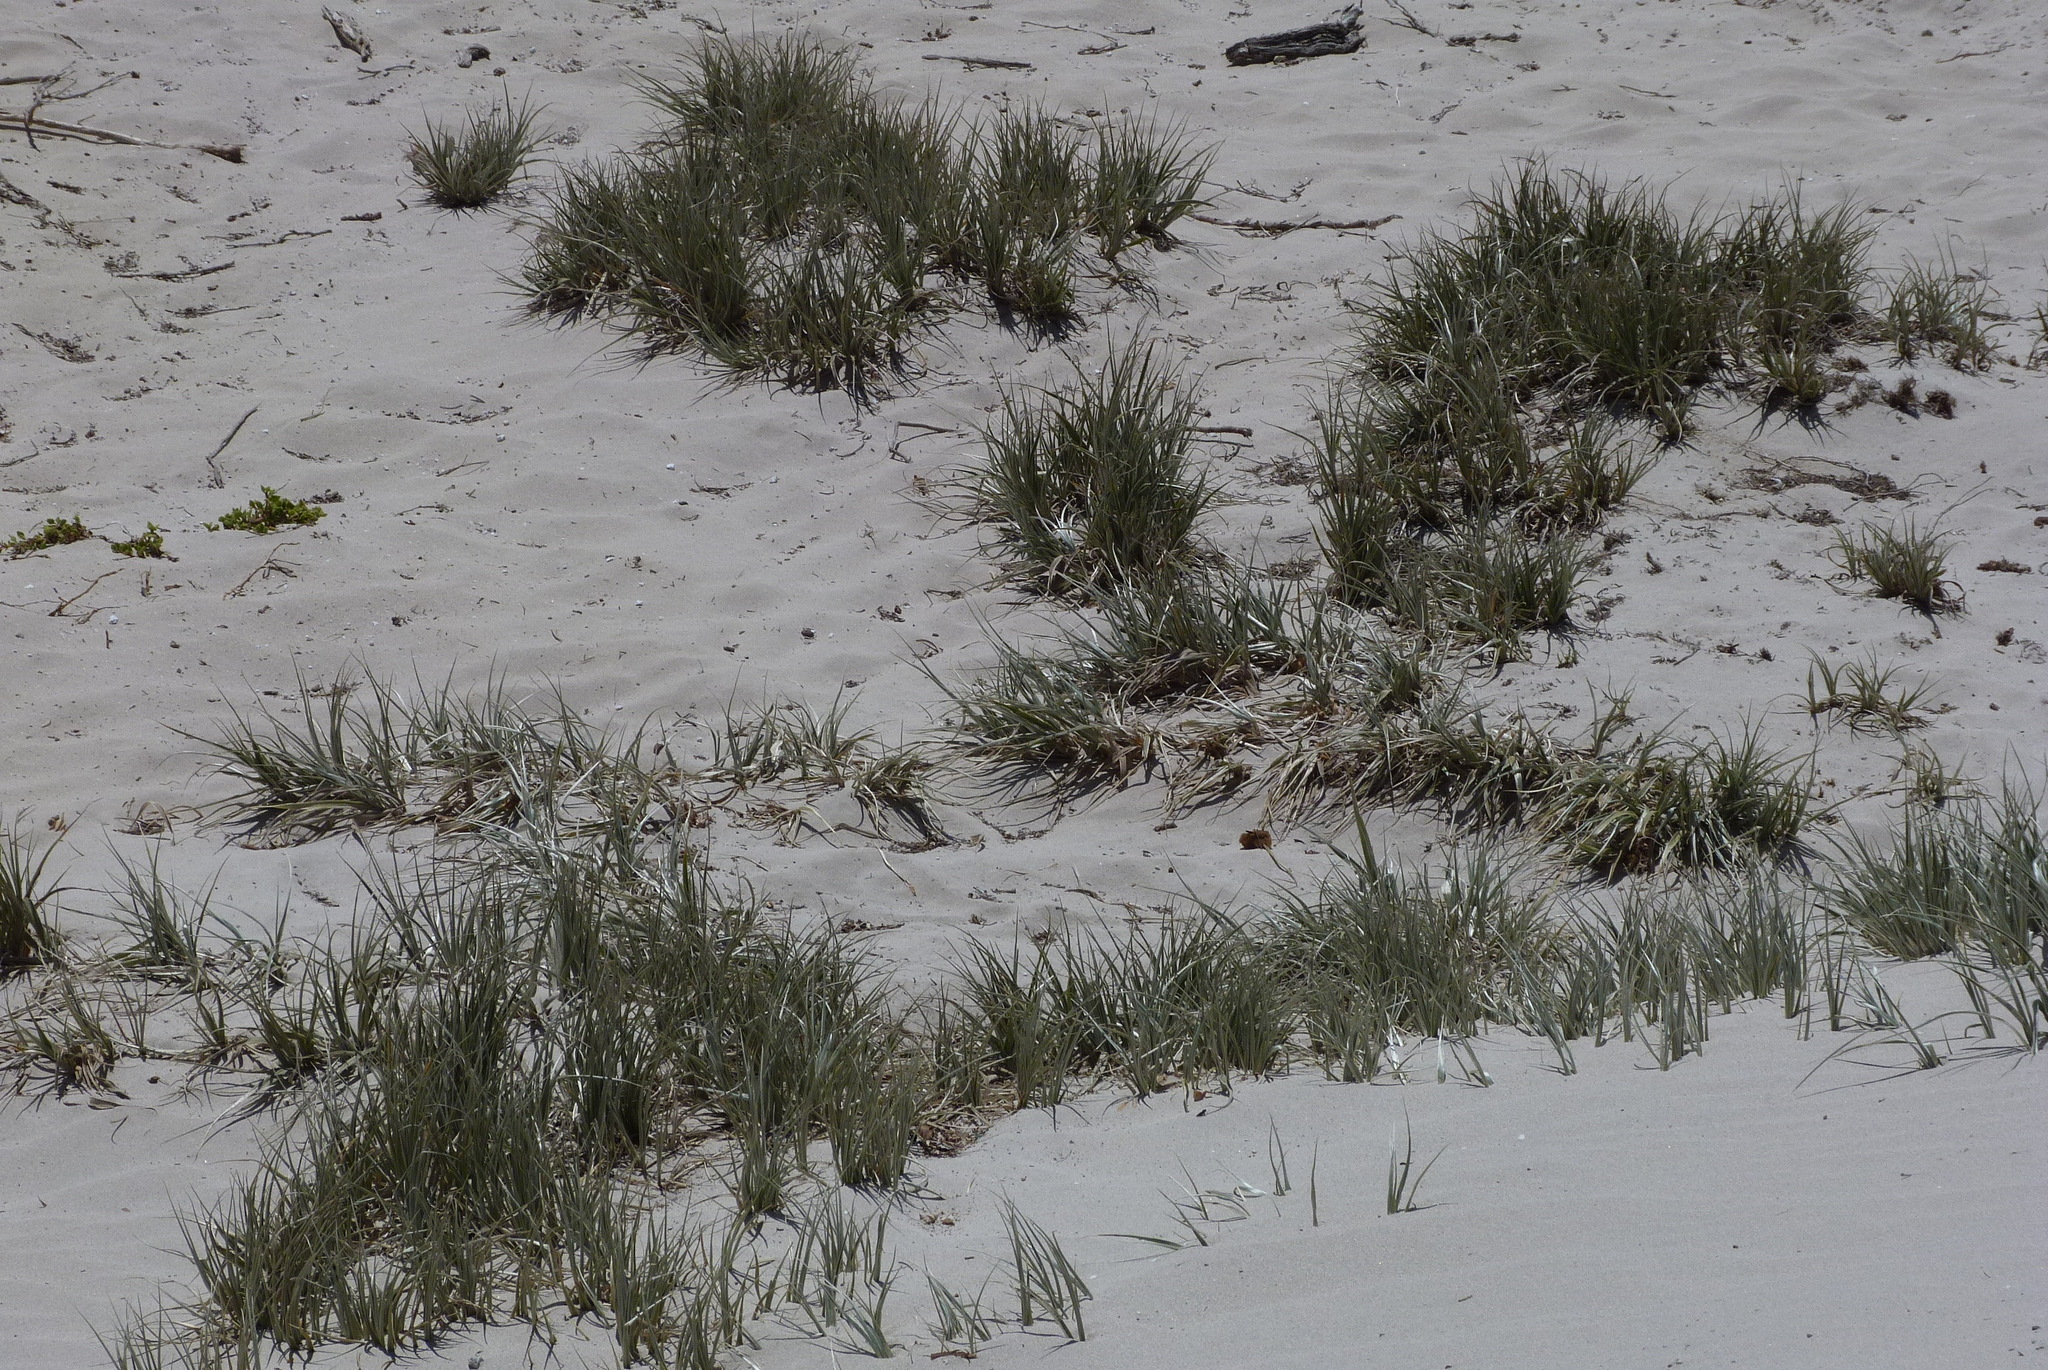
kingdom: Plantae
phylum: Tracheophyta
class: Liliopsida
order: Poales
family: Poaceae
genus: Spinifex
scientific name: Spinifex hirsutus
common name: Hairy spinifex
